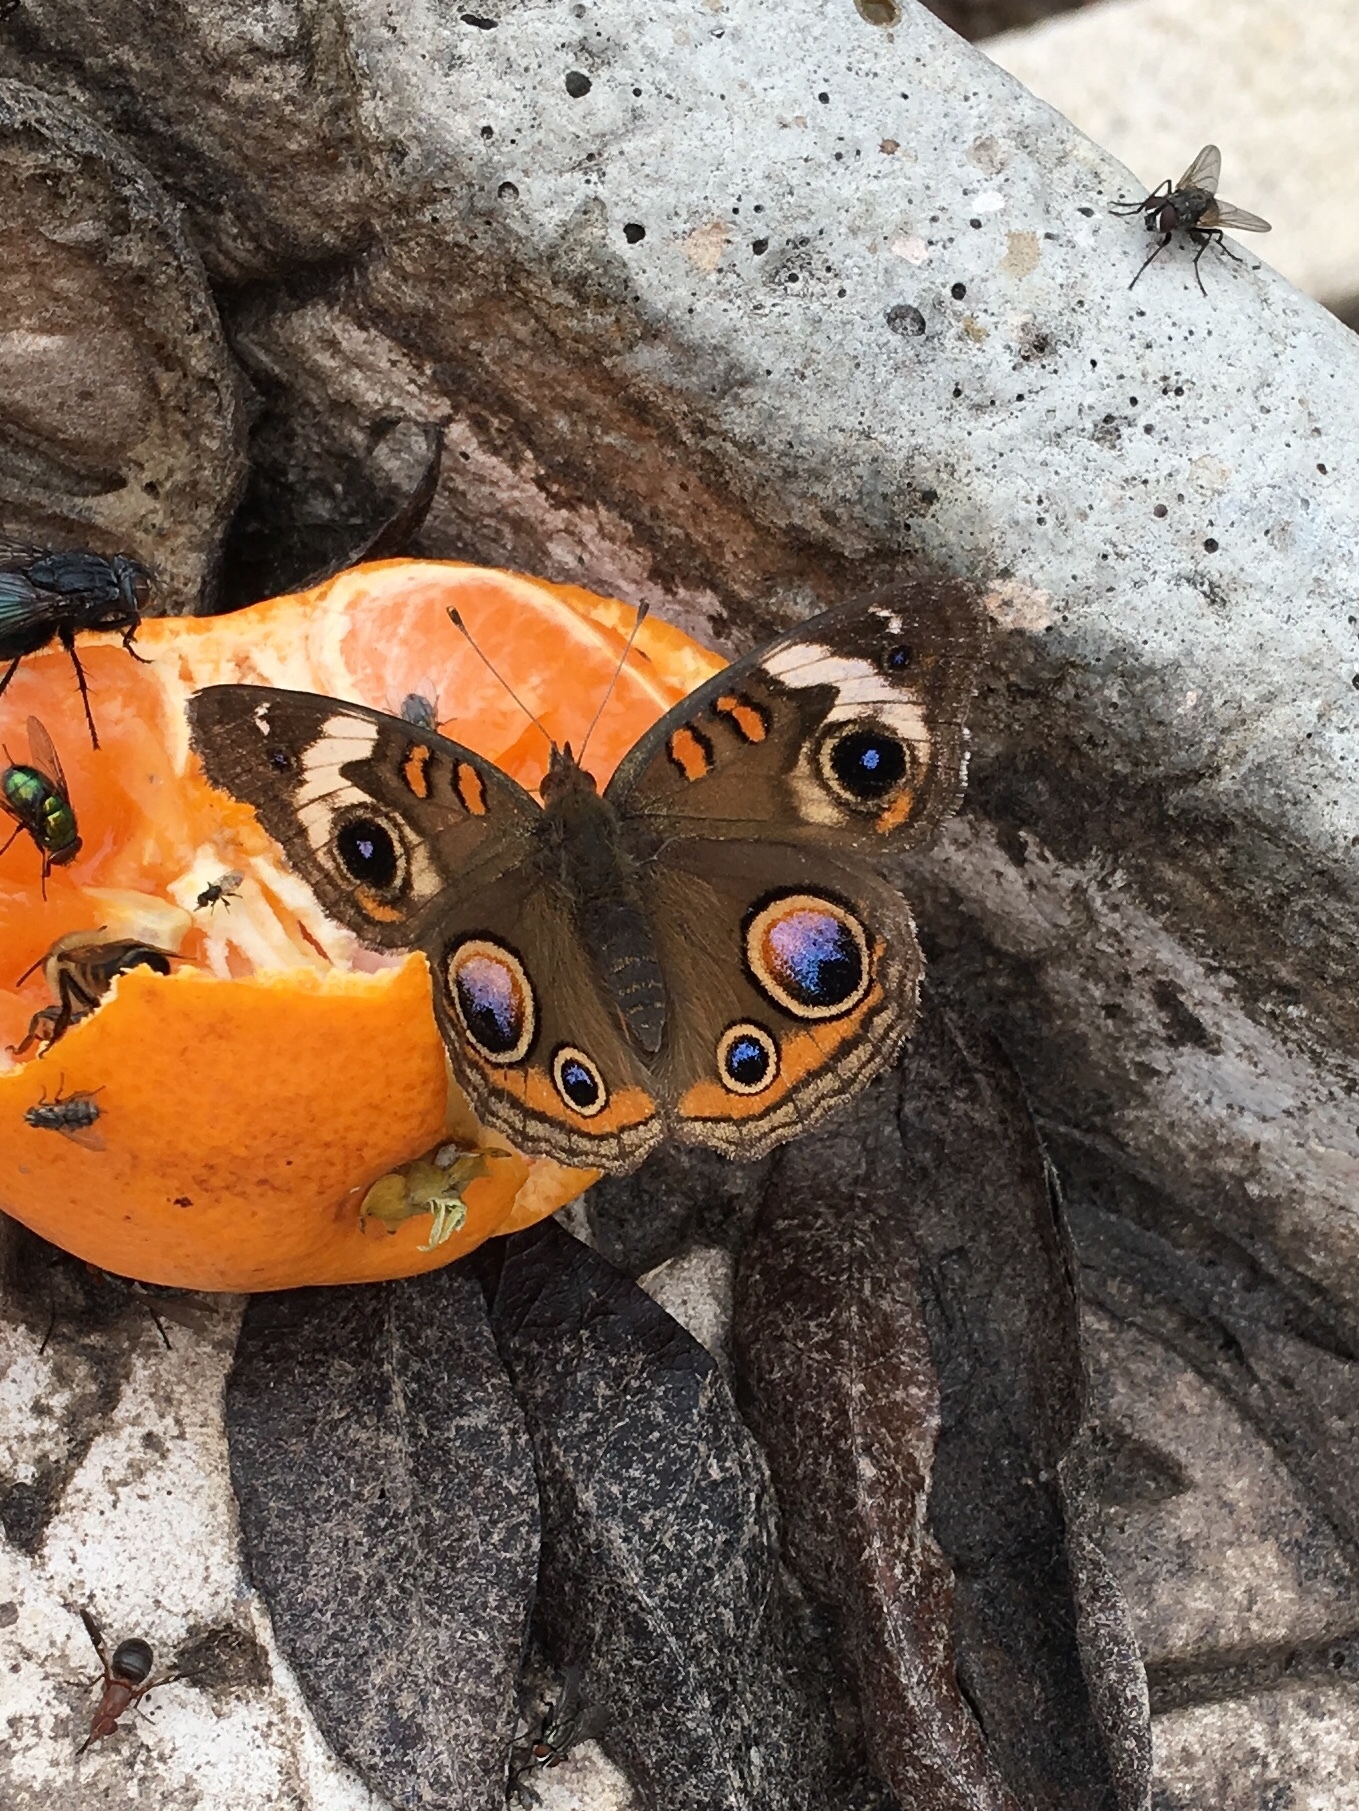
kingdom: Animalia
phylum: Arthropoda
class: Insecta
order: Lepidoptera
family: Nymphalidae
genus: Junonia
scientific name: Junonia coenia
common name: Common buckeye
